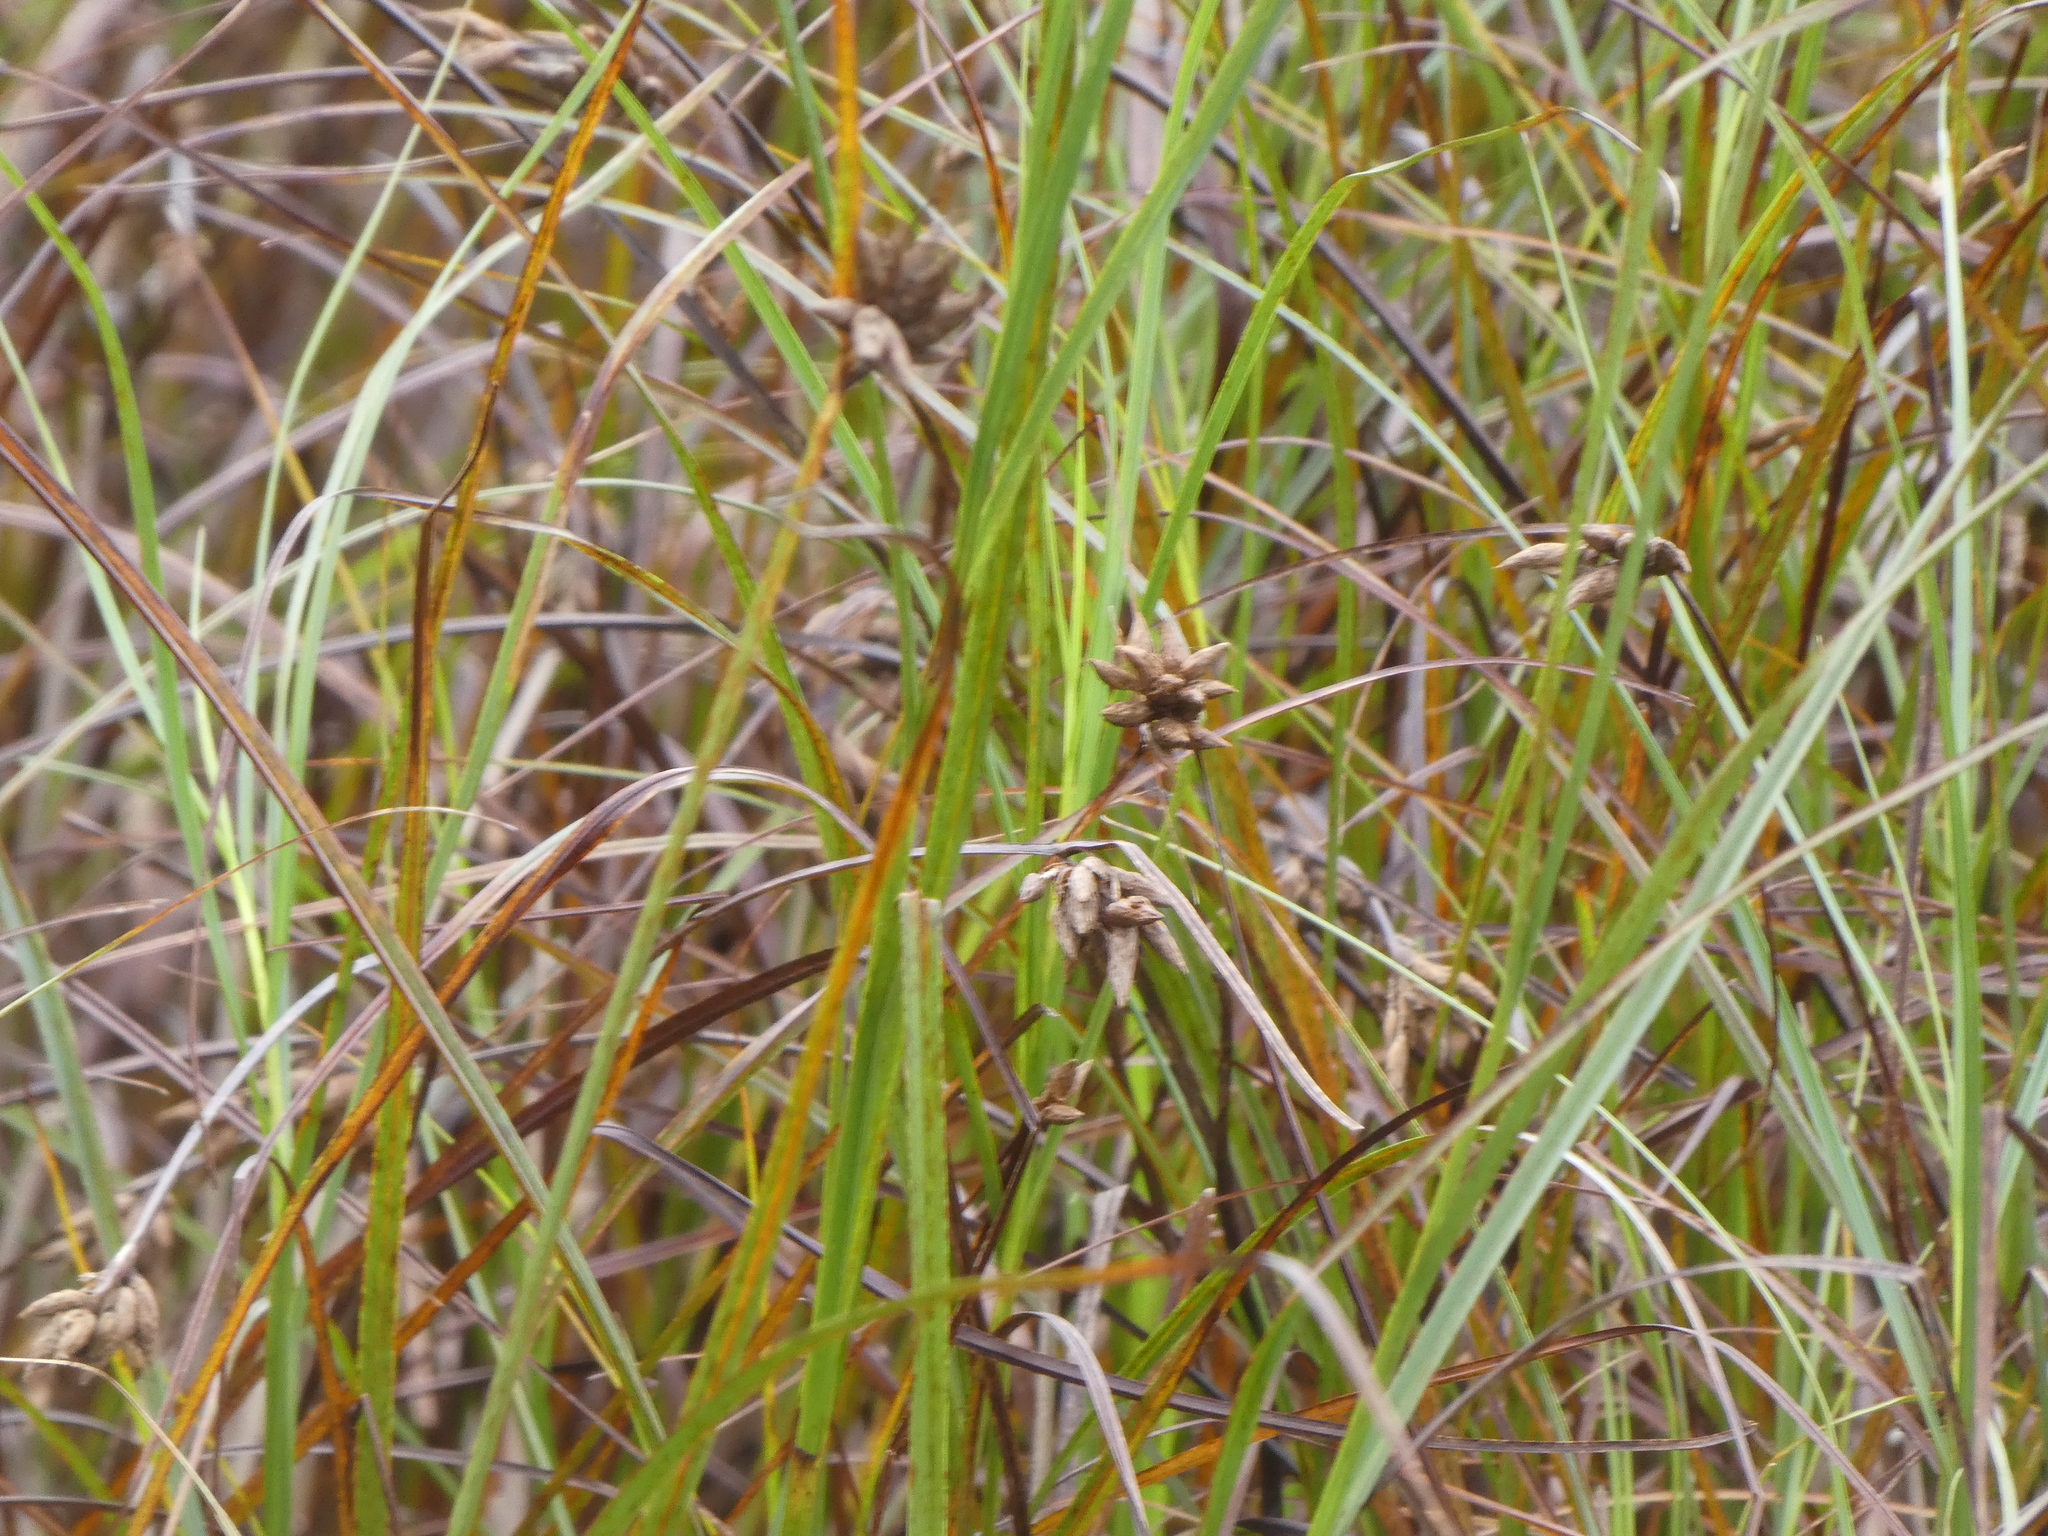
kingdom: Plantae
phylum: Tracheophyta
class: Liliopsida
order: Poales
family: Cyperaceae
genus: Bolboschoenus
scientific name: Bolboschoenus maritimus
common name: Sea club-rush
